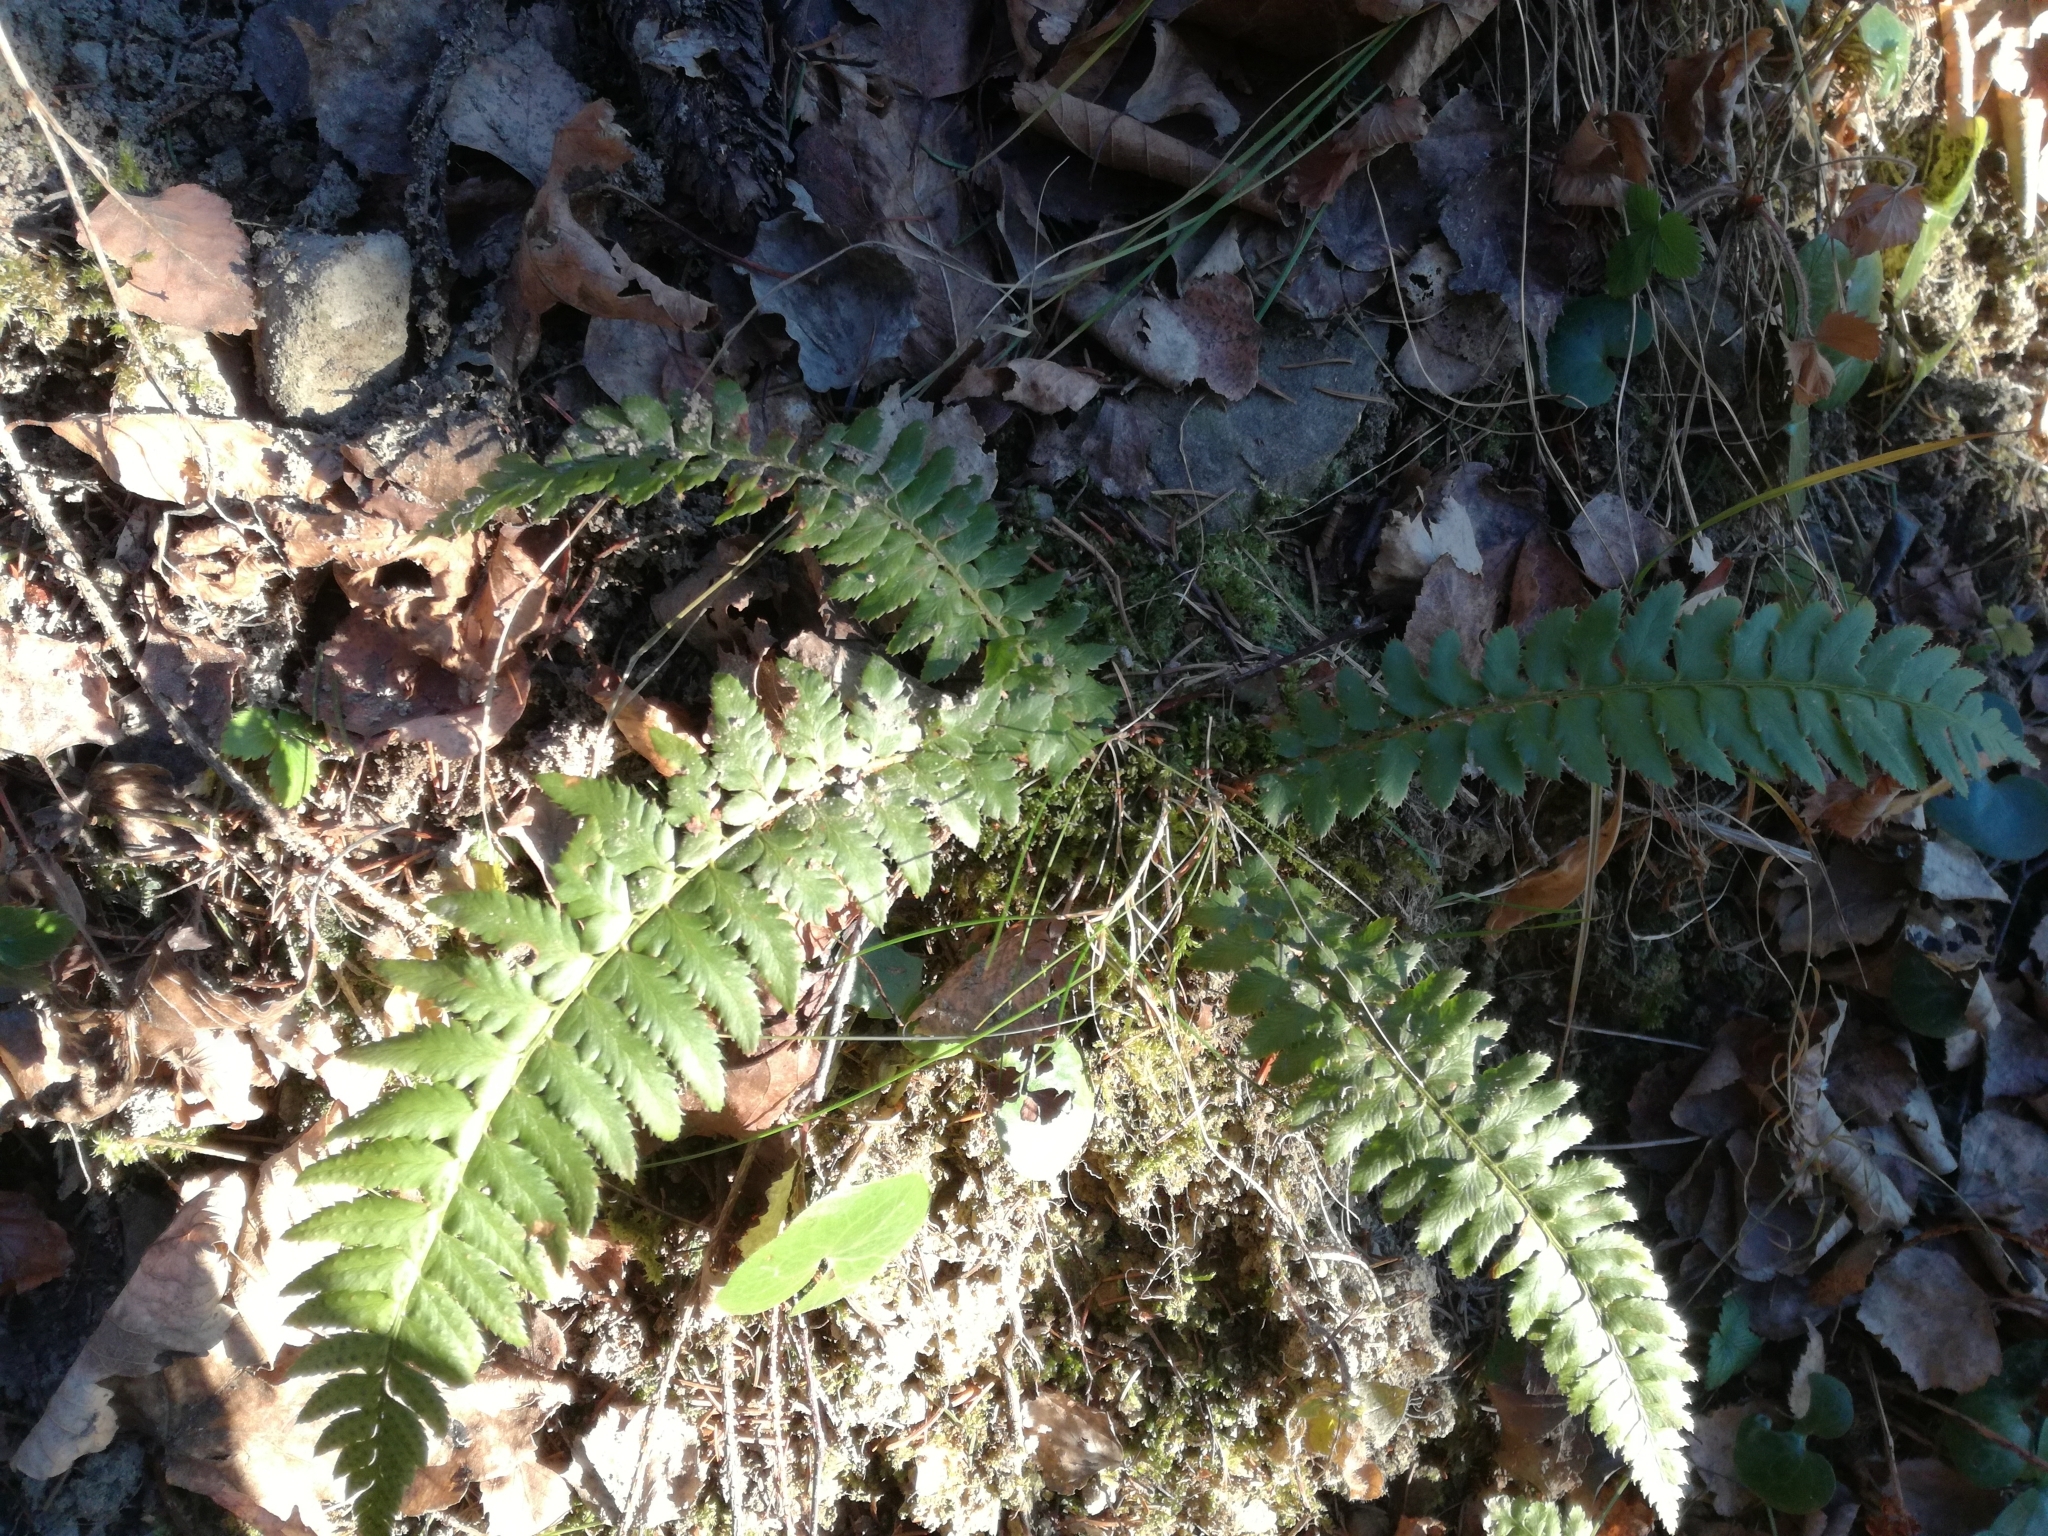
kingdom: Plantae
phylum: Tracheophyta
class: Polypodiopsida
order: Polypodiales
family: Dryopteridaceae
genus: Polystichum
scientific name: Polystichum aculeatum
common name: Hard shield-fern
